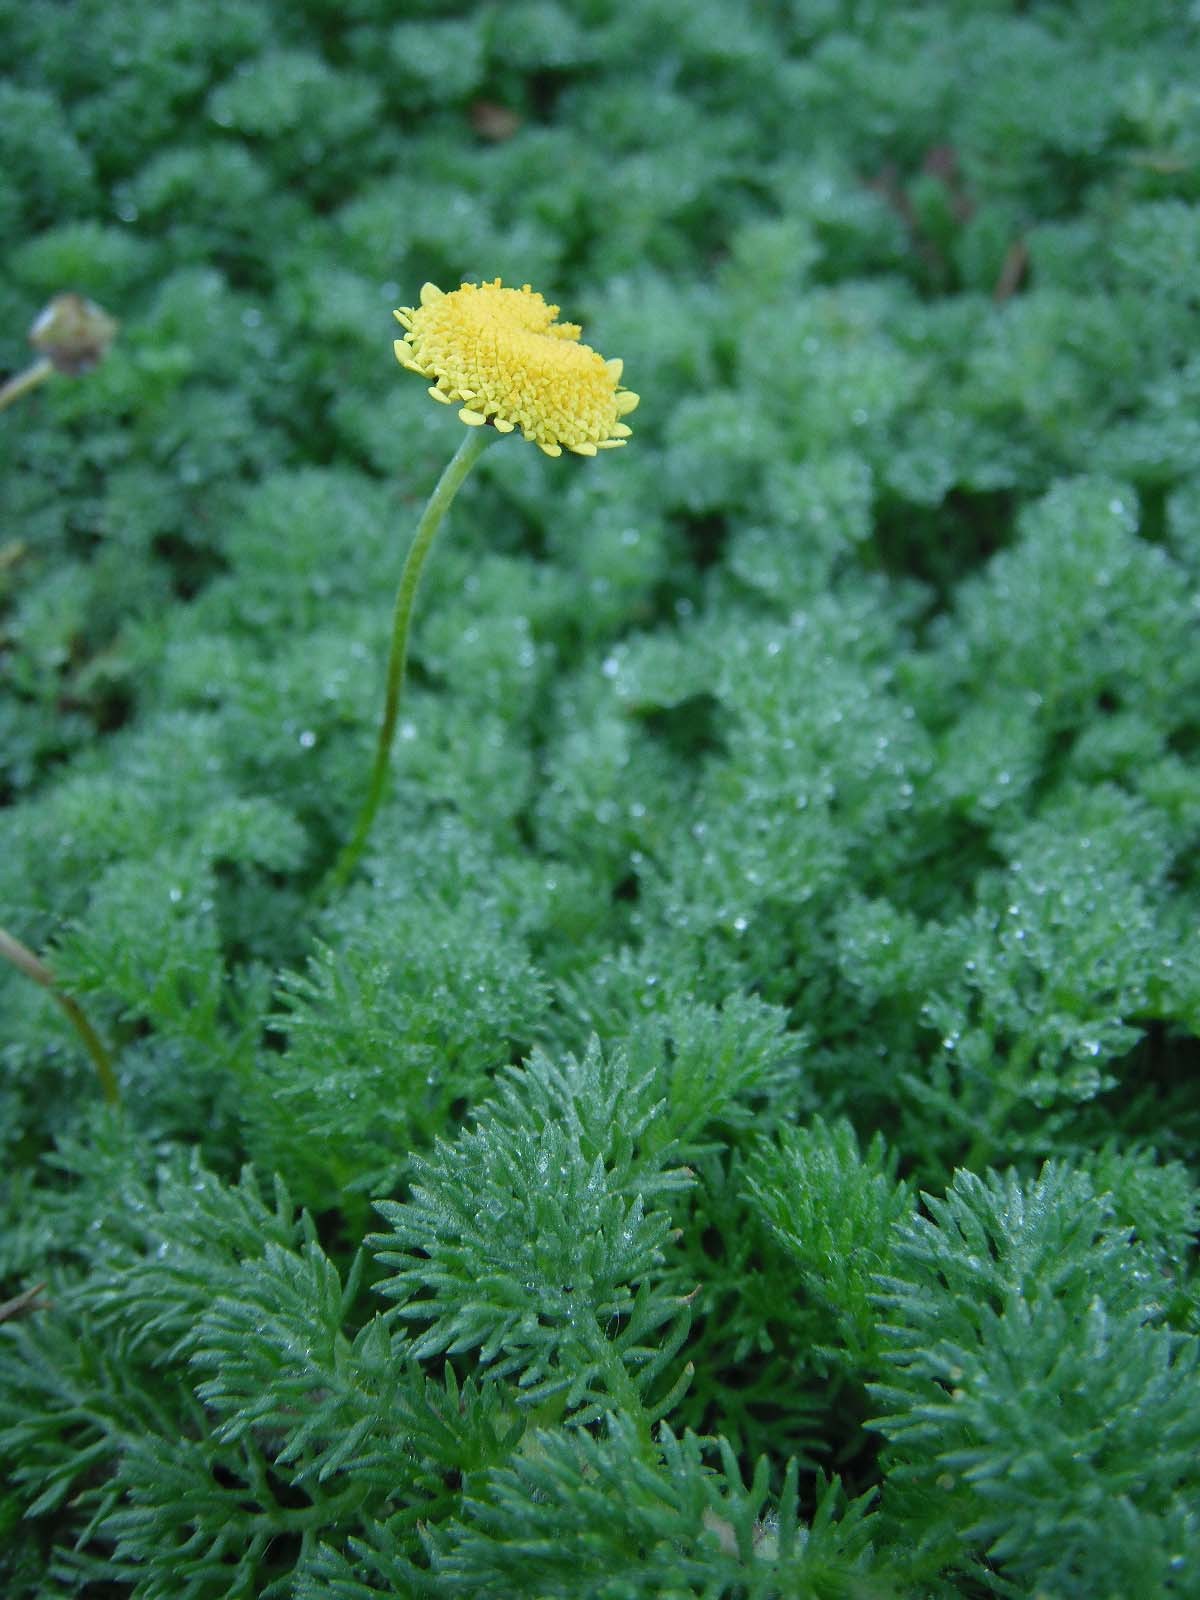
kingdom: Plantae
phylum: Tracheophyta
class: Magnoliopsida
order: Asterales
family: Asteraceae
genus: Cotula
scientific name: Cotula discolor
